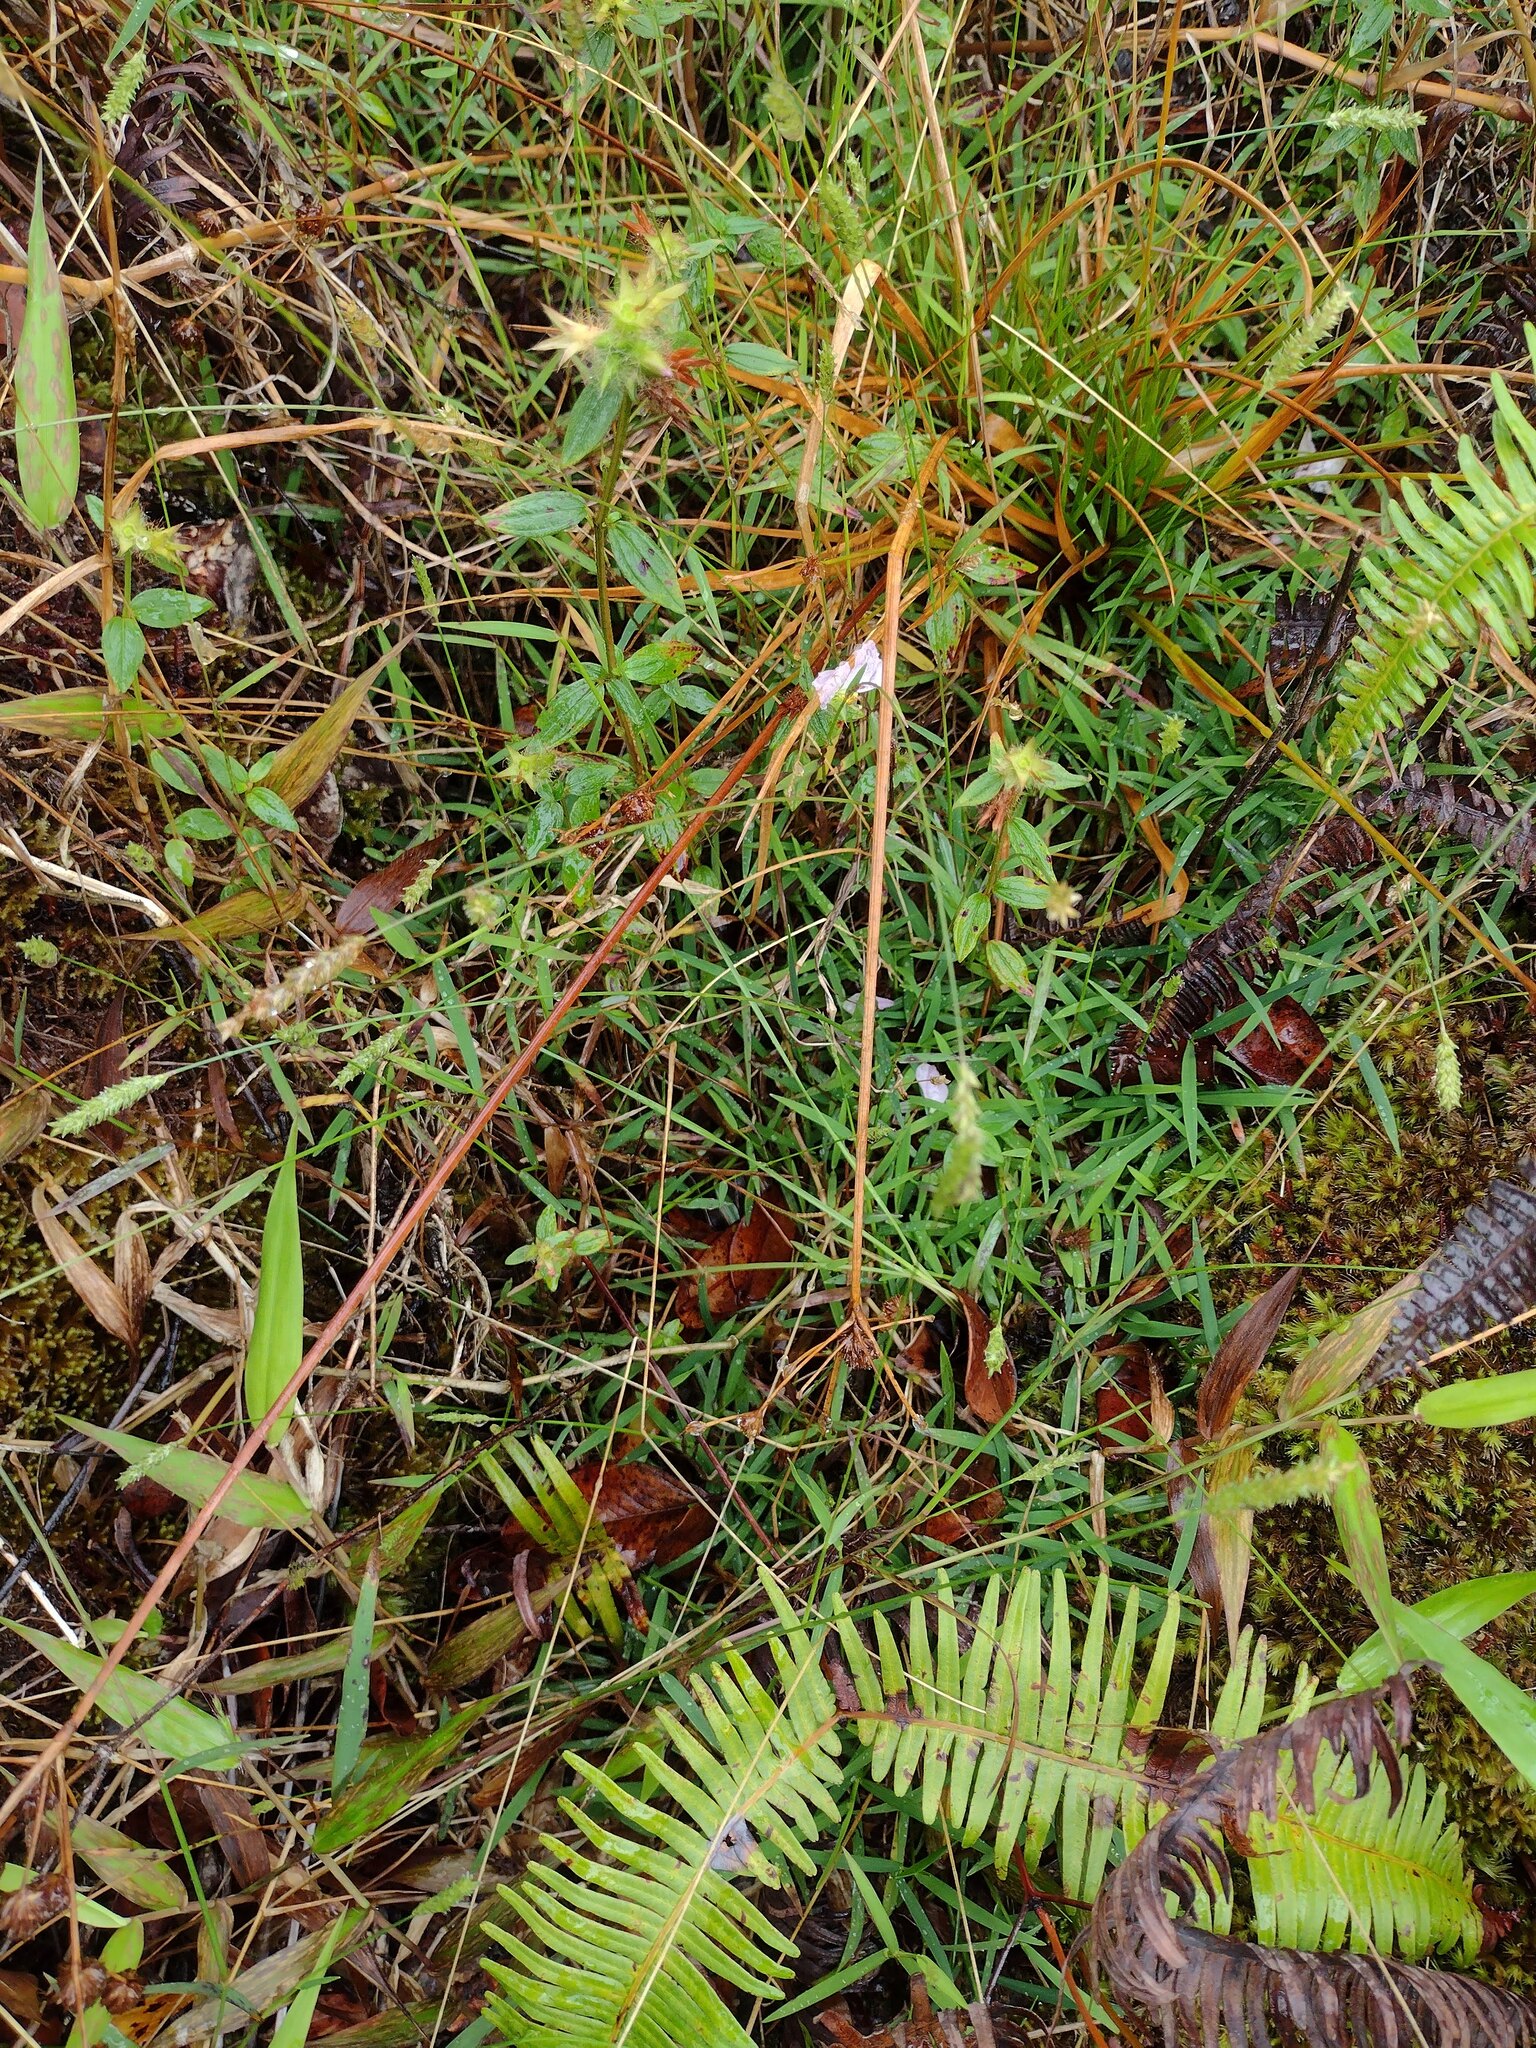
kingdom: Plantae
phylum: Tracheophyta
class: Liliopsida
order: Poales
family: Poaceae
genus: Sacciolepis
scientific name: Sacciolepis indica
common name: Glenwoodgrass
